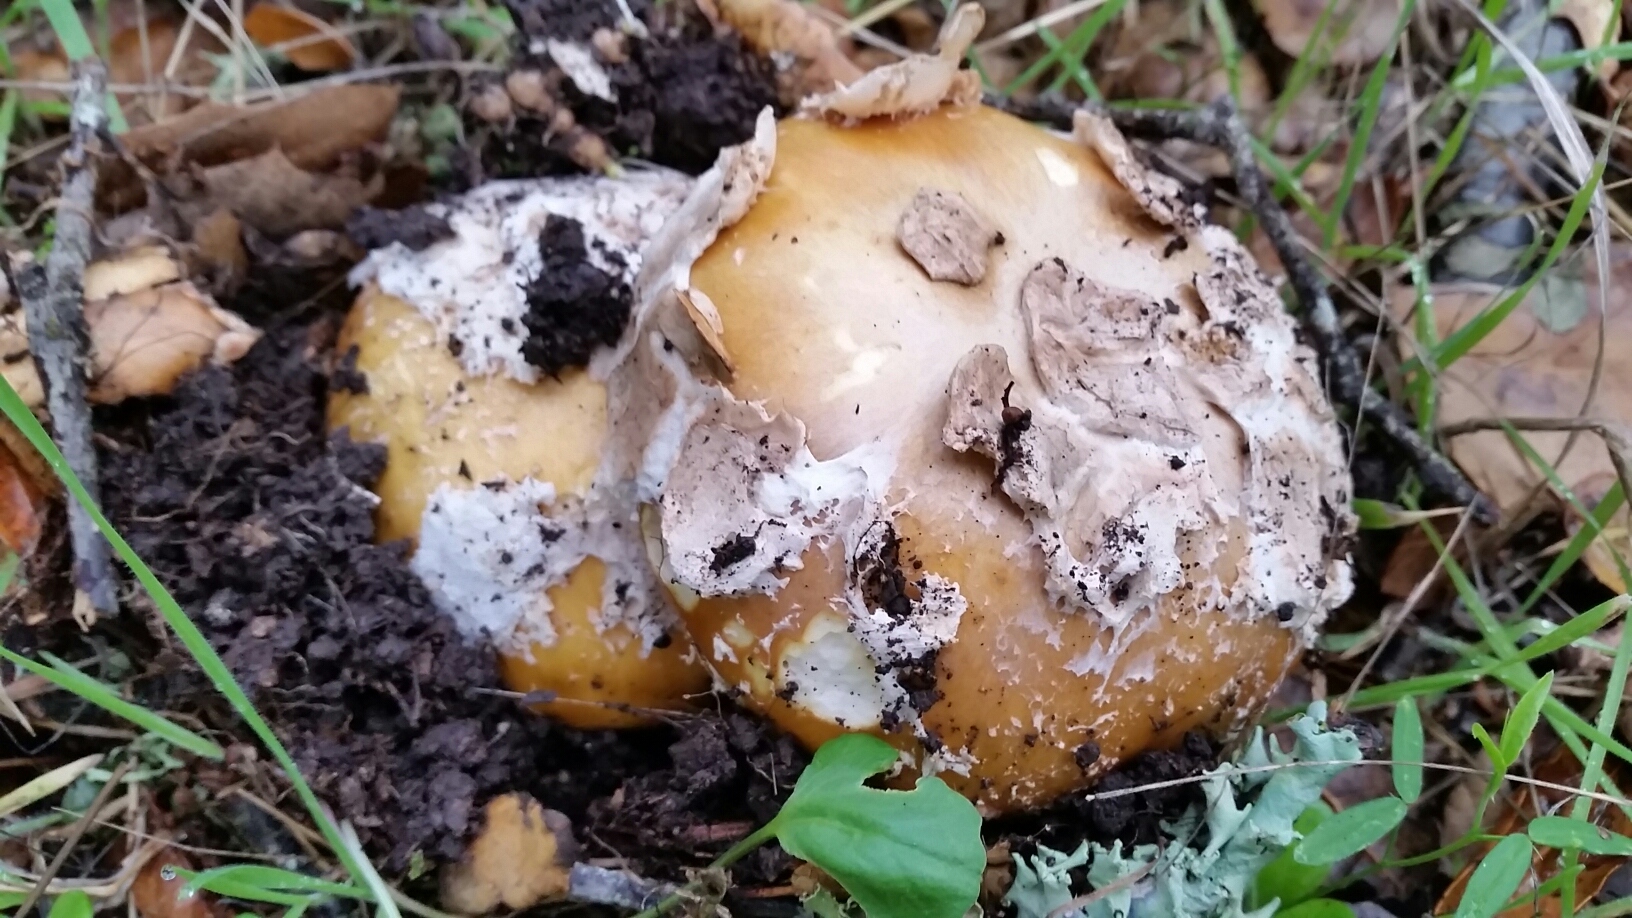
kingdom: Fungi
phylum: Basidiomycota
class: Agaricomycetes
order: Agaricales
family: Amanitaceae
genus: Amanita
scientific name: Amanita calyptroderma
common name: Coccora
